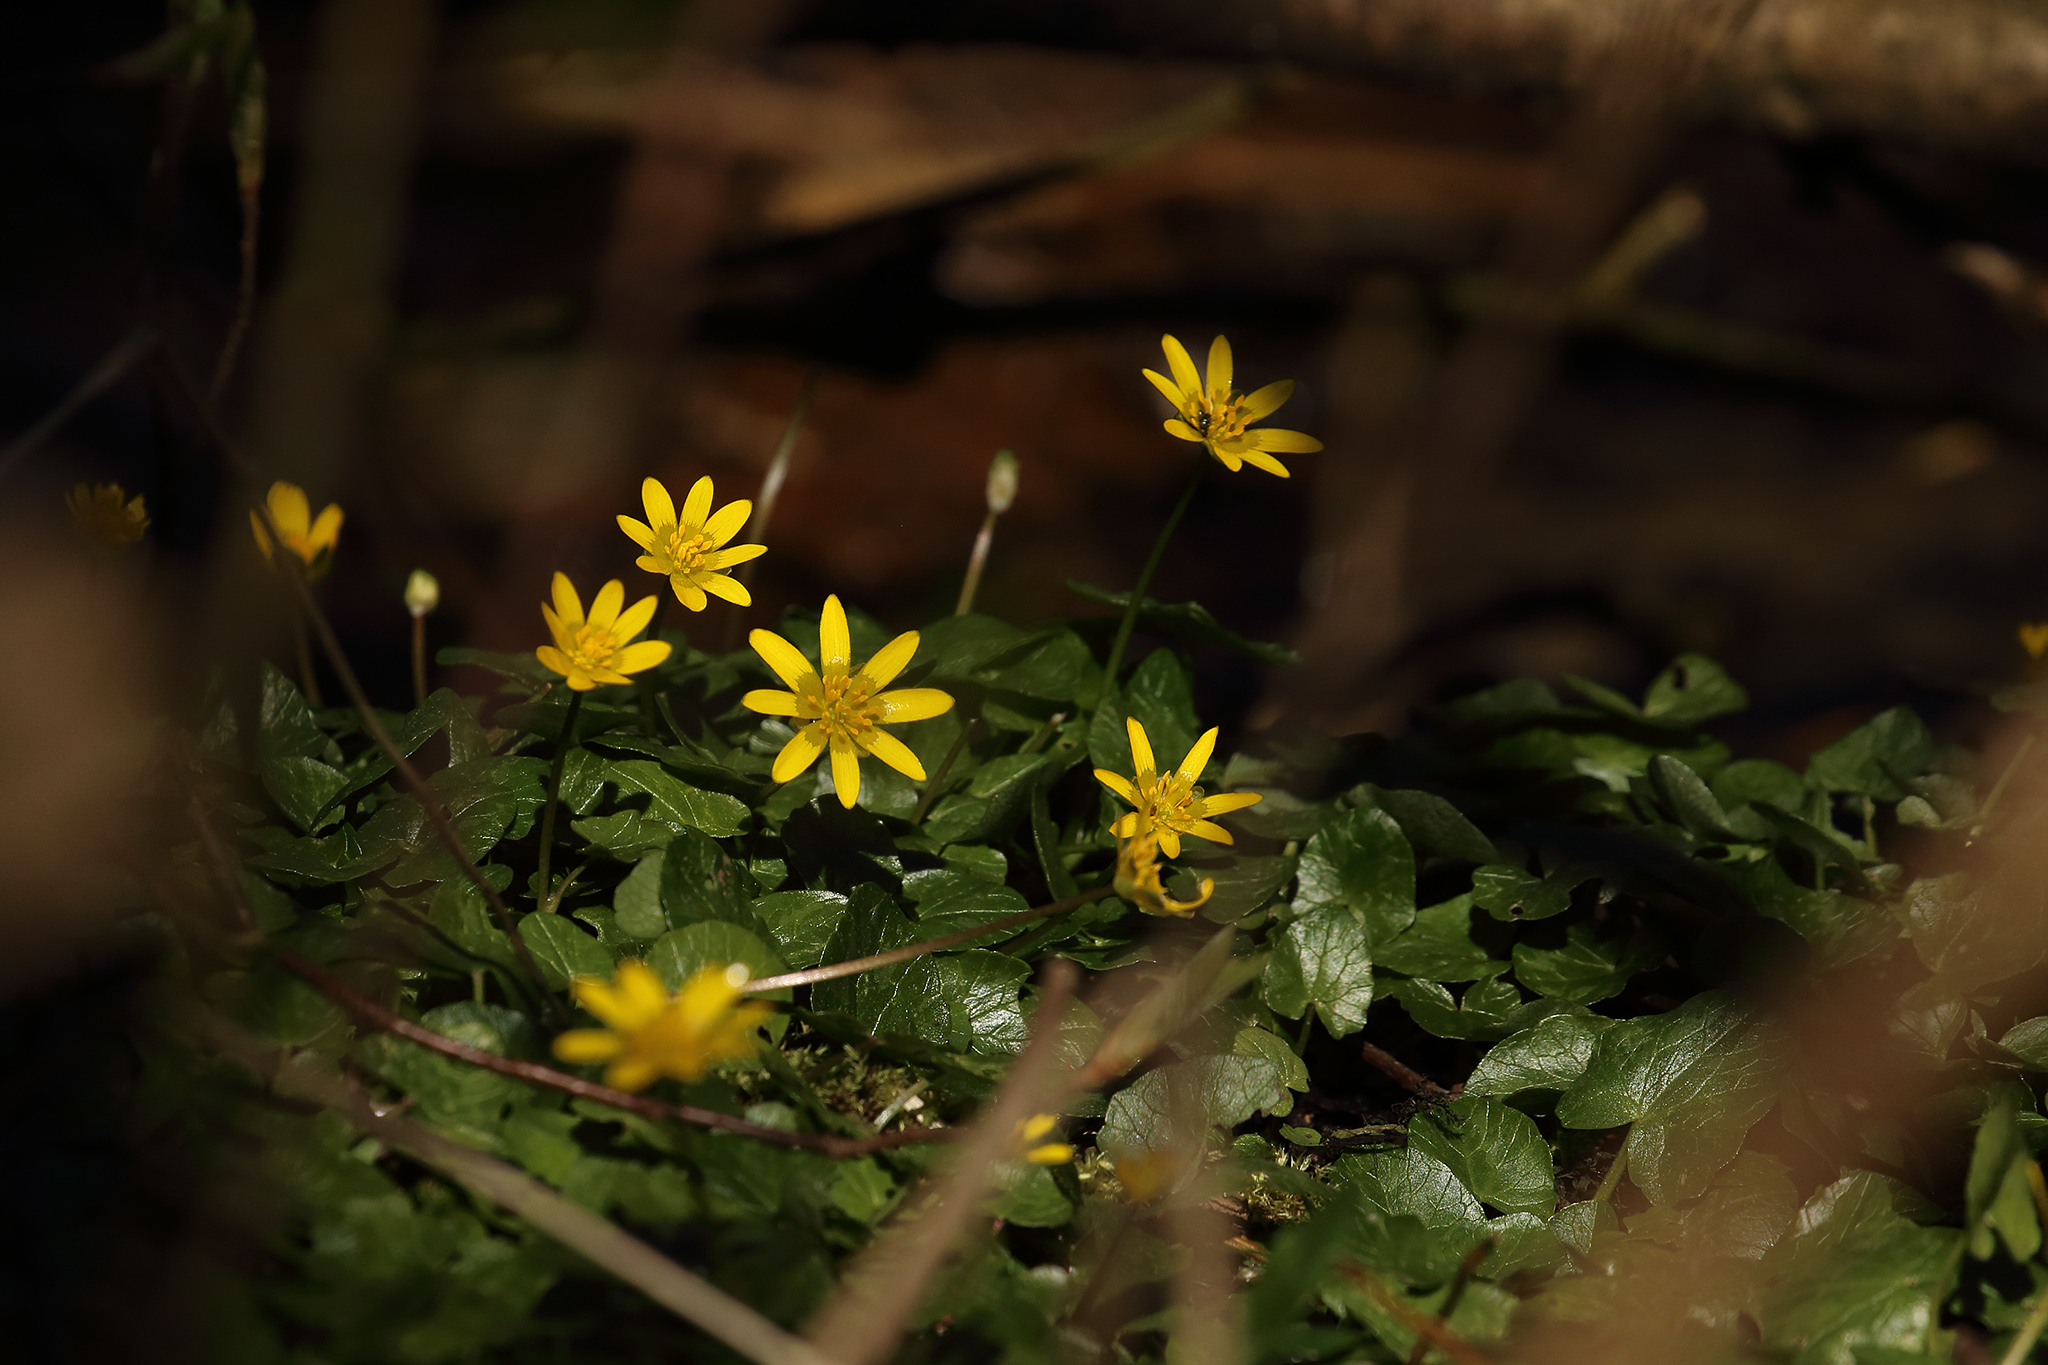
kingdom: Plantae
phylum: Tracheophyta
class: Magnoliopsida
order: Ranunculales
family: Ranunculaceae
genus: Ficaria
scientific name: Ficaria verna
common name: Lesser celandine
